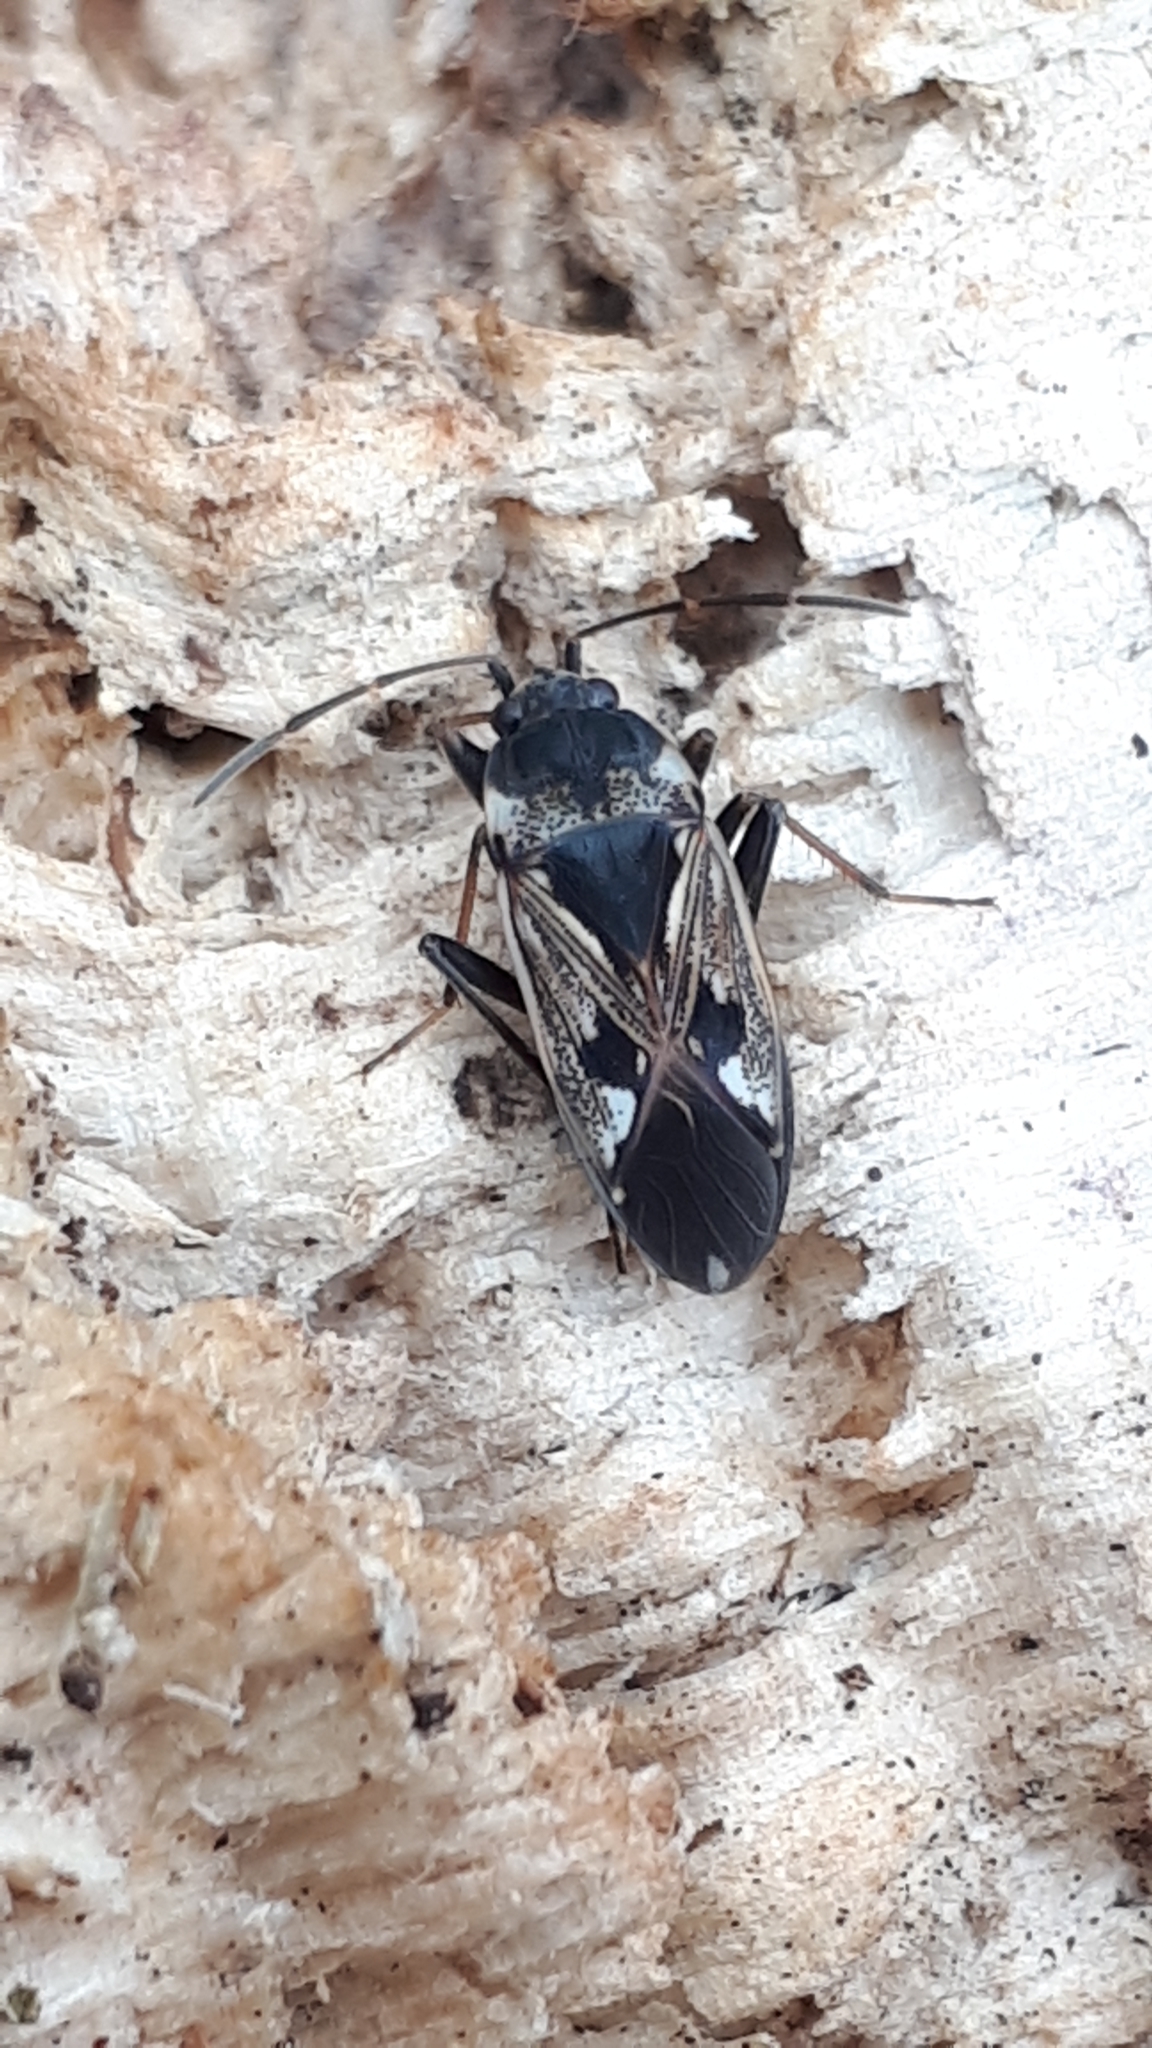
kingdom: Animalia
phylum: Arthropoda
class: Insecta
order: Hemiptera
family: Rhyparochromidae
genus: Rhyparochromus
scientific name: Rhyparochromus vulgaris
